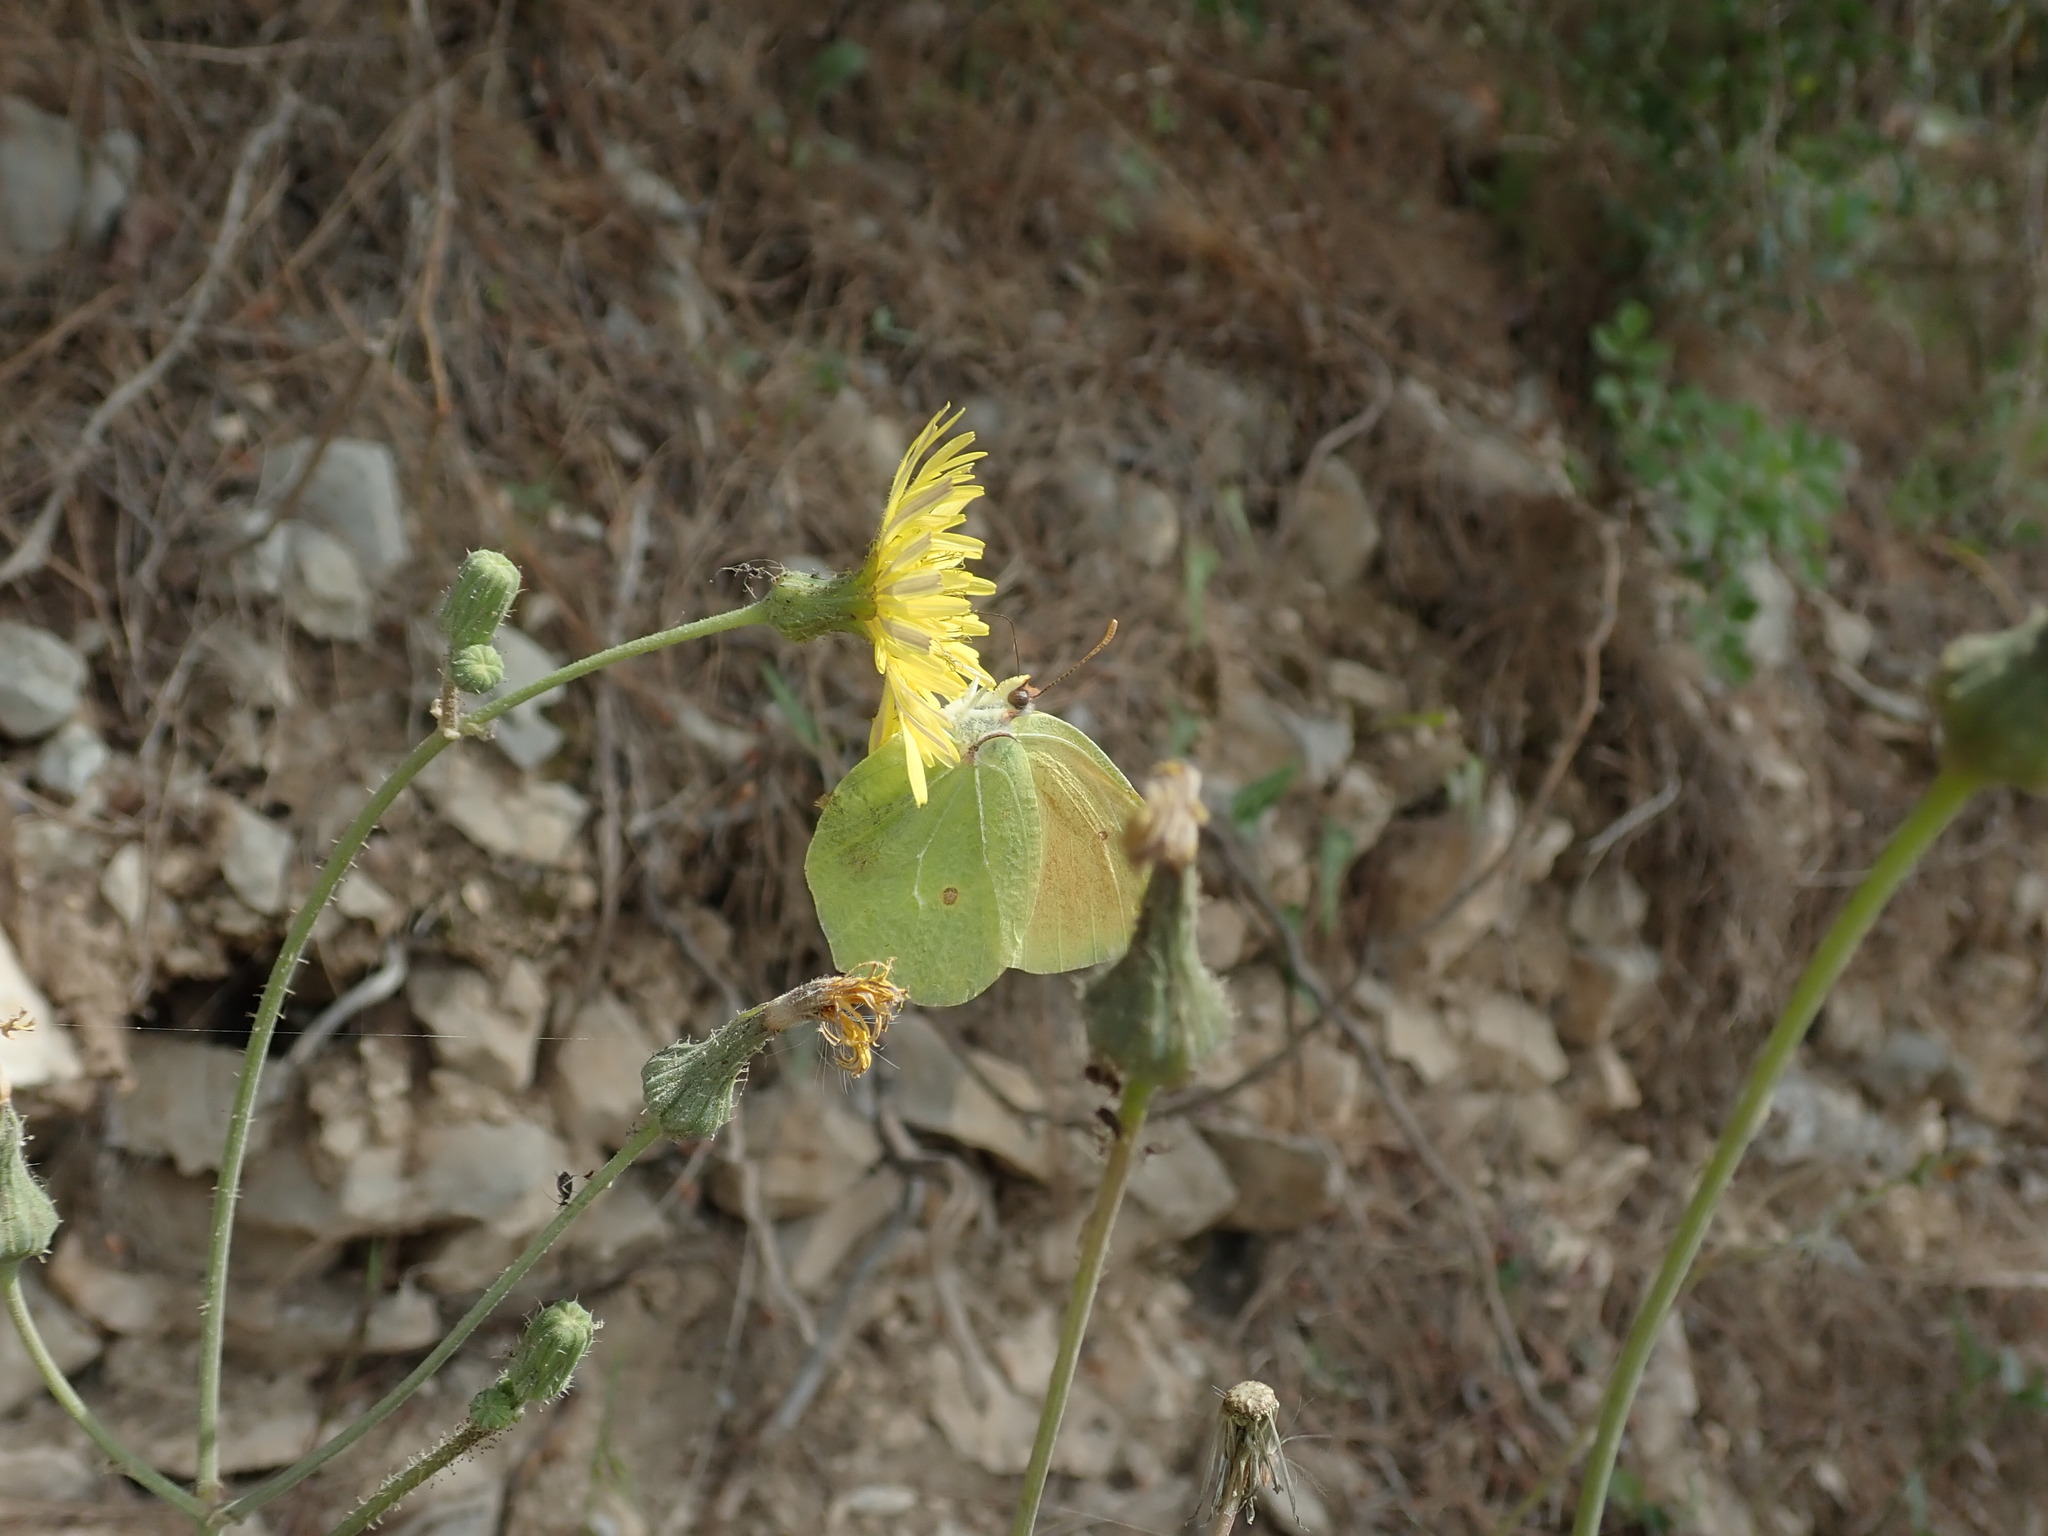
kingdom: Animalia
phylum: Arthropoda
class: Insecta
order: Lepidoptera
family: Pieridae
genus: Gonepteryx
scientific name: Gonepteryx cleopatra
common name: Cleopatra
